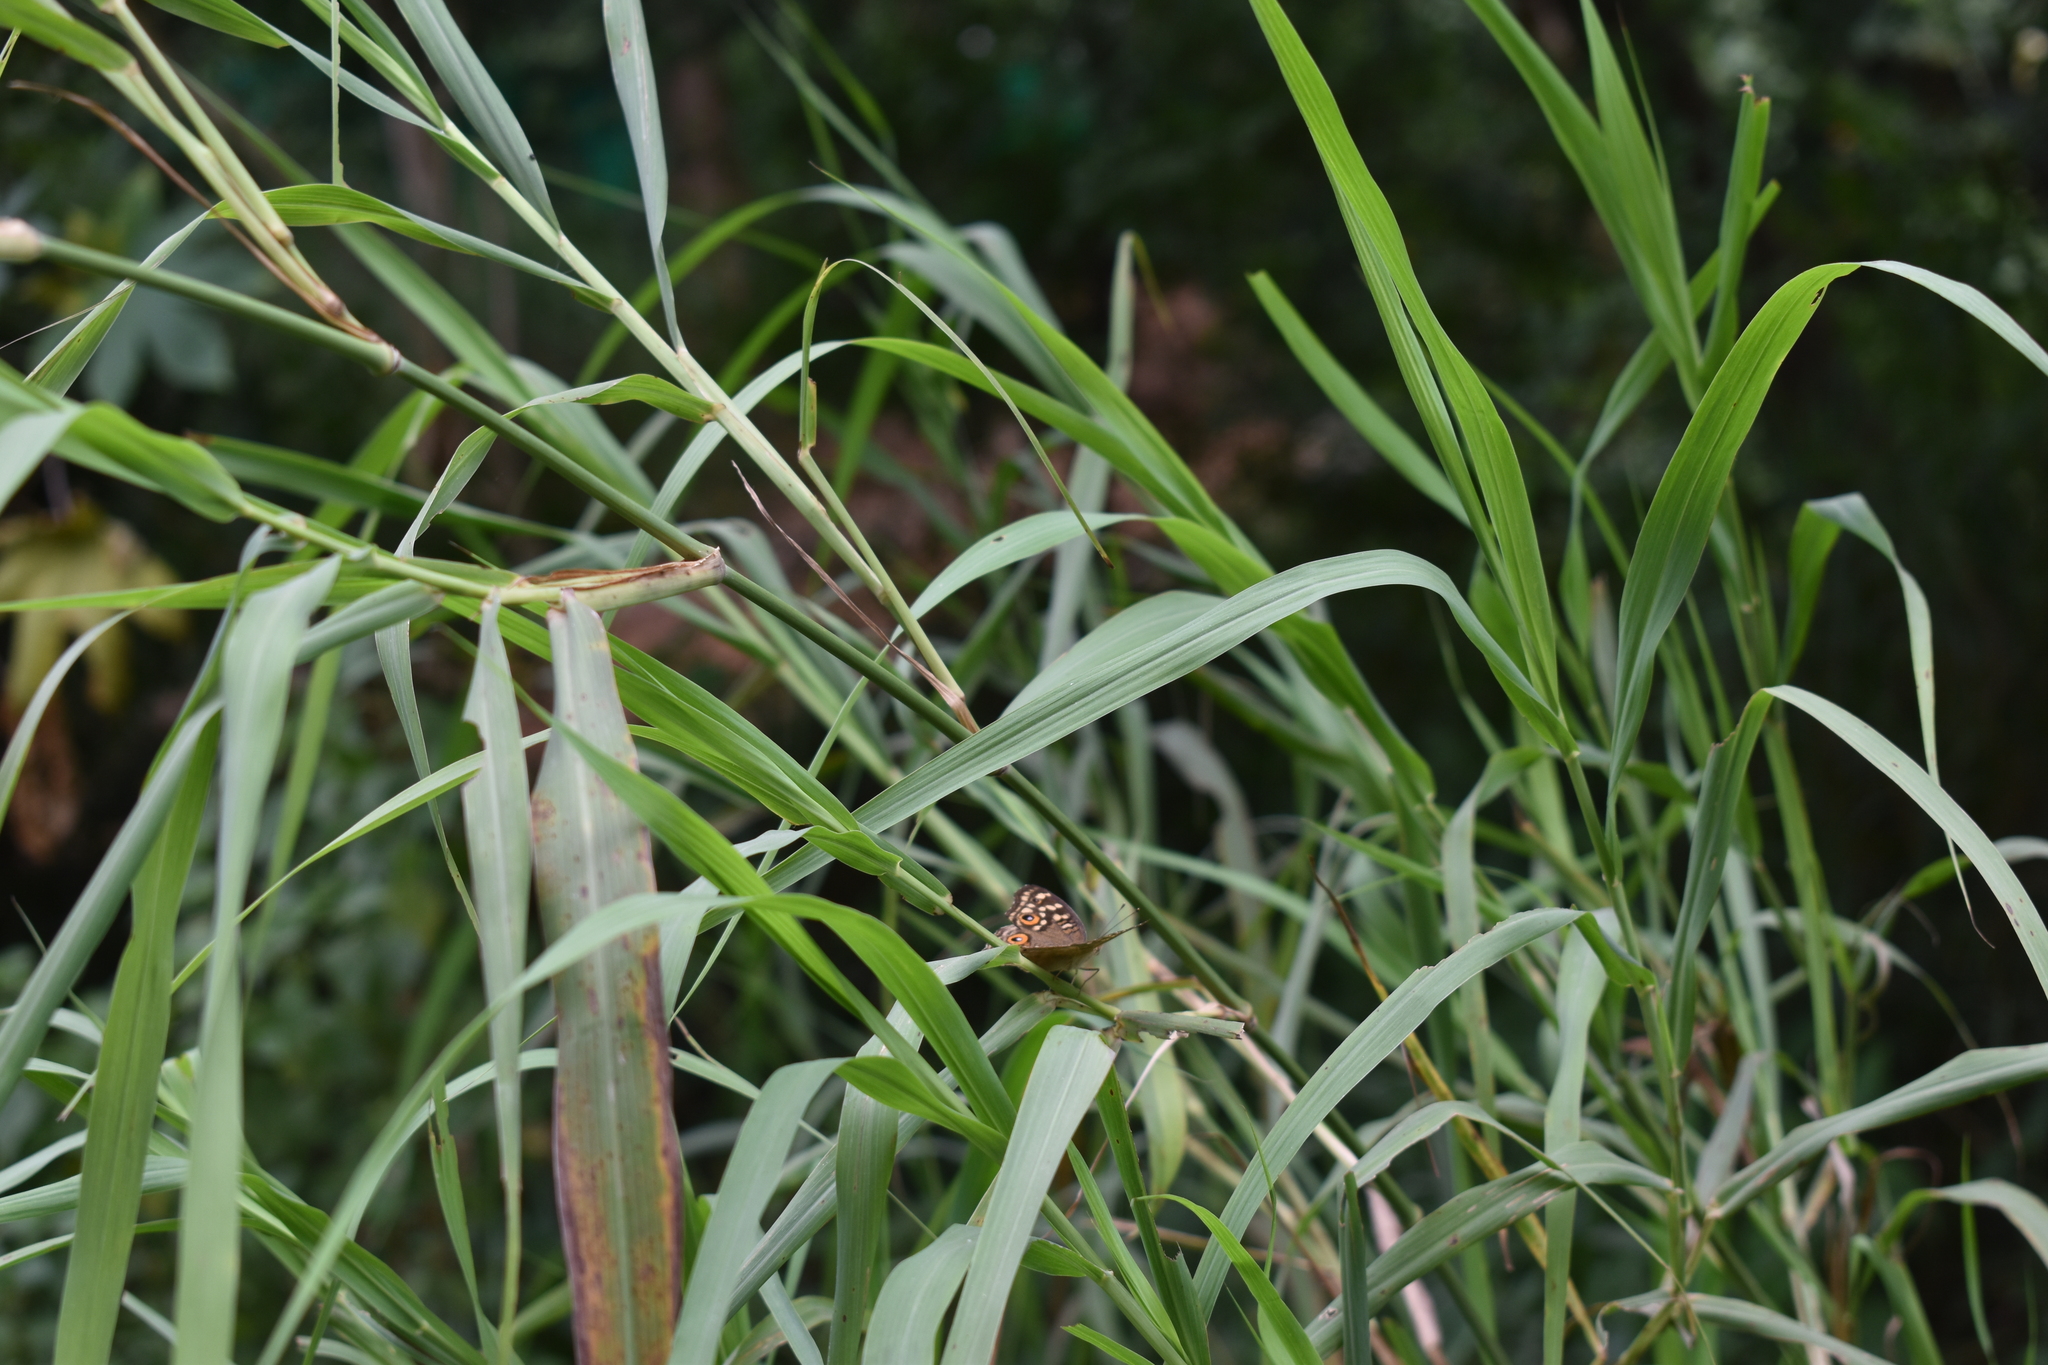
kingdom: Animalia
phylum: Arthropoda
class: Insecta
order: Lepidoptera
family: Nymphalidae
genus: Junonia
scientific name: Junonia lemonias
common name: Lemon pansy
